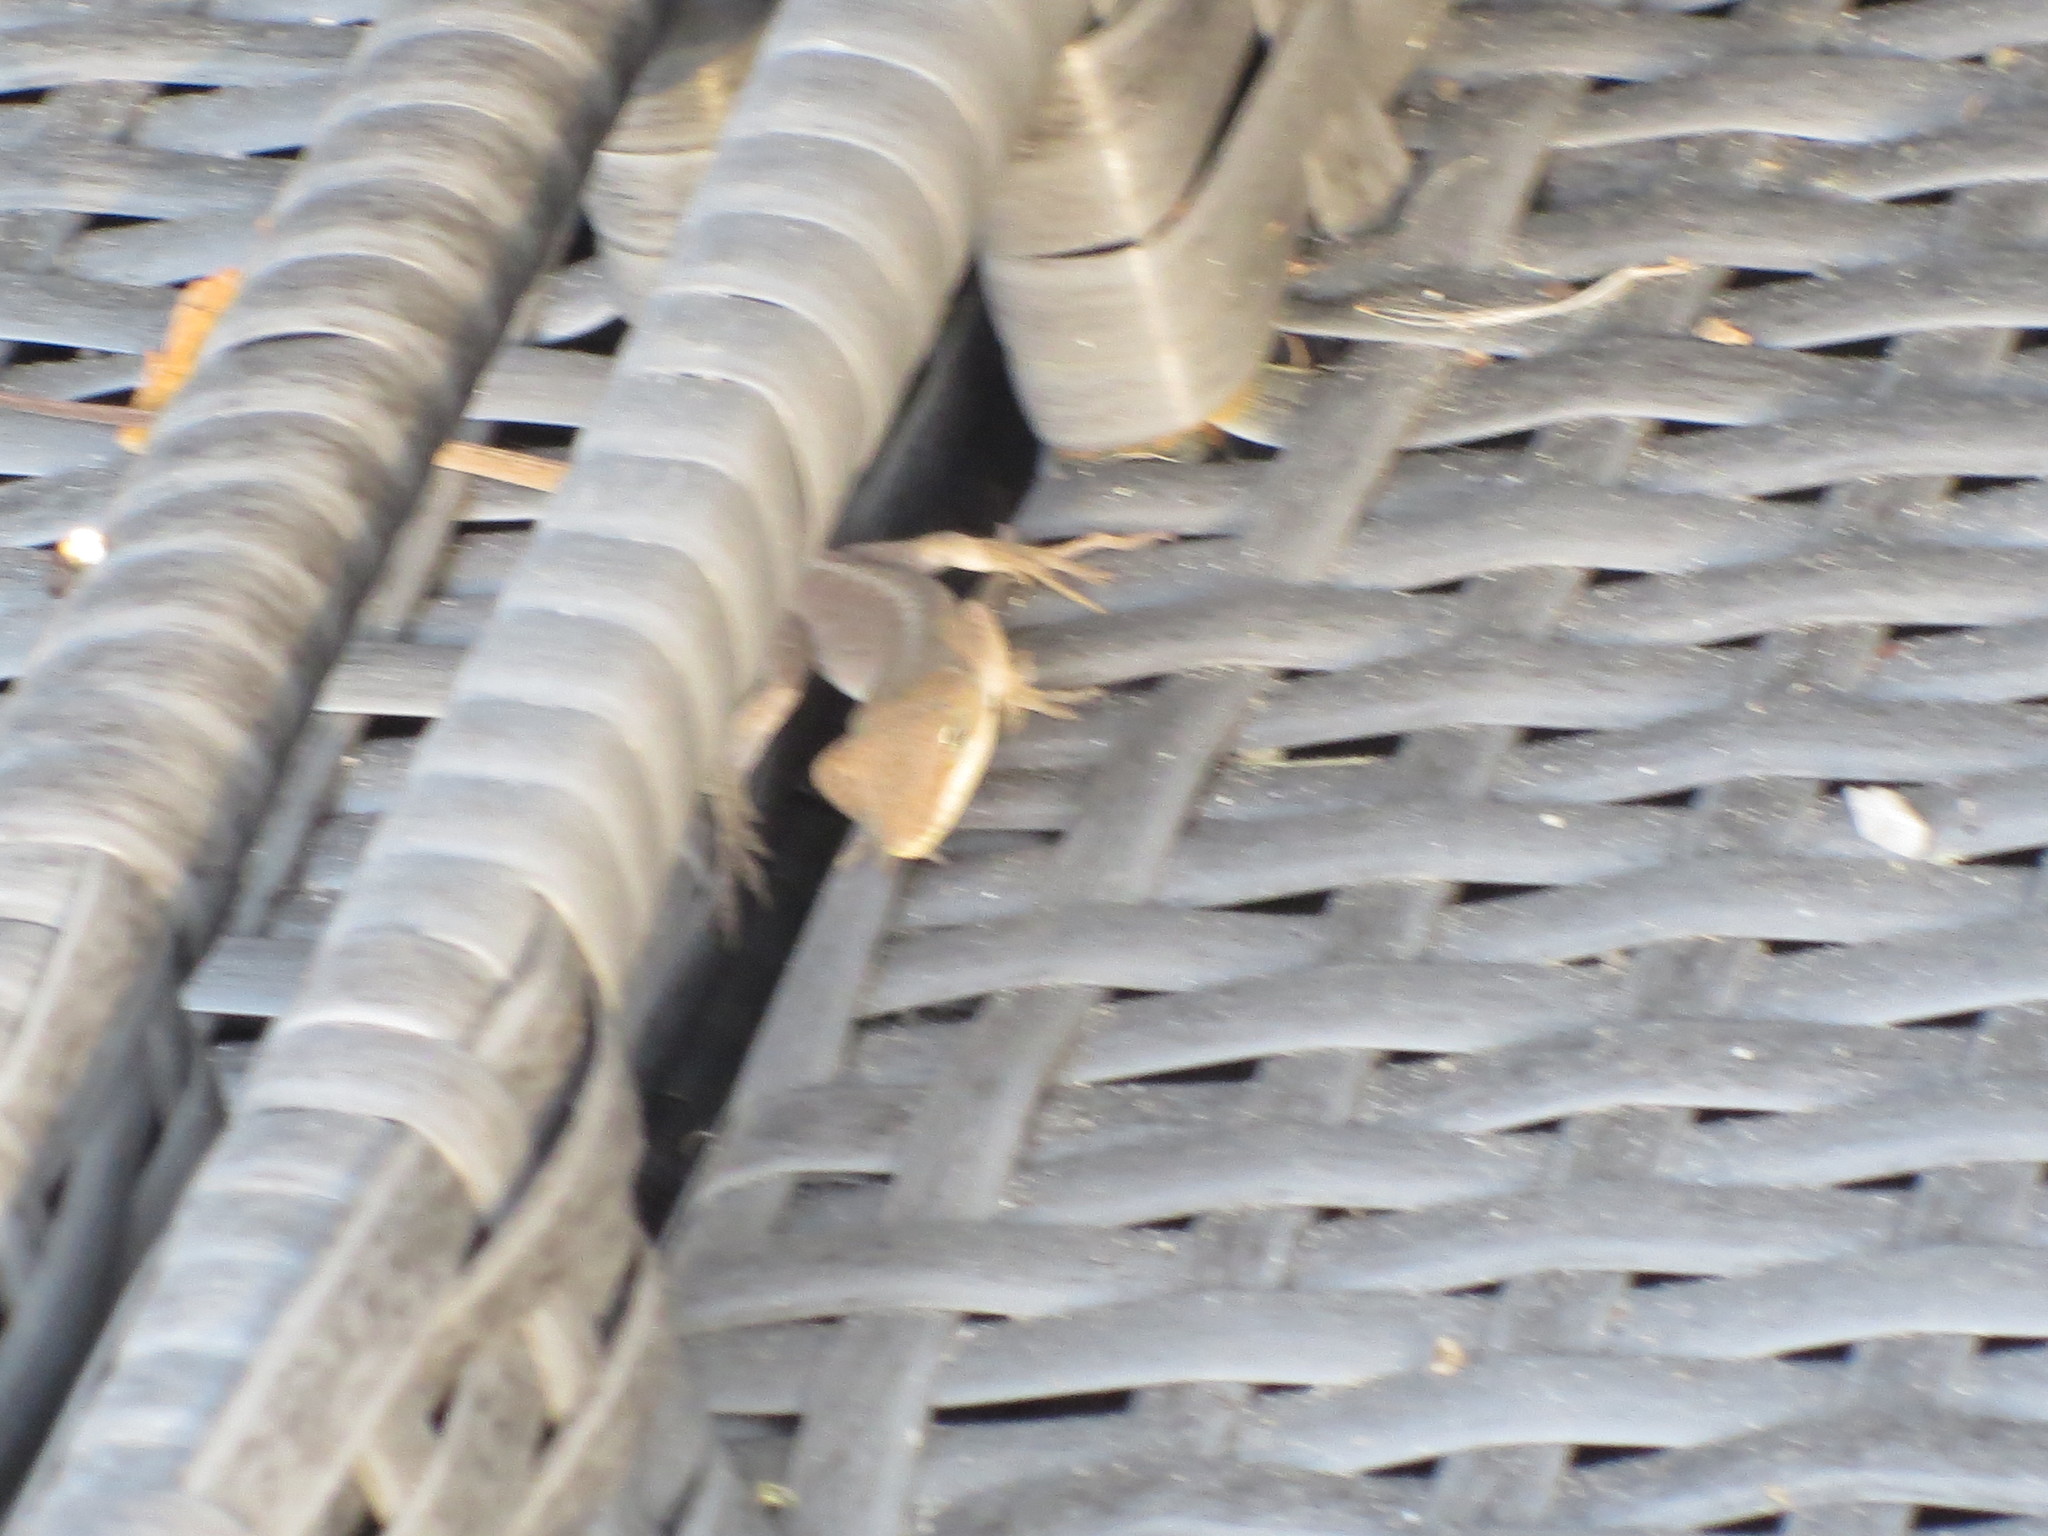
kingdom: Animalia
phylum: Chordata
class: Squamata
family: Dactyloidae
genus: Anolis
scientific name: Anolis carolinensis
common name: Green anole
